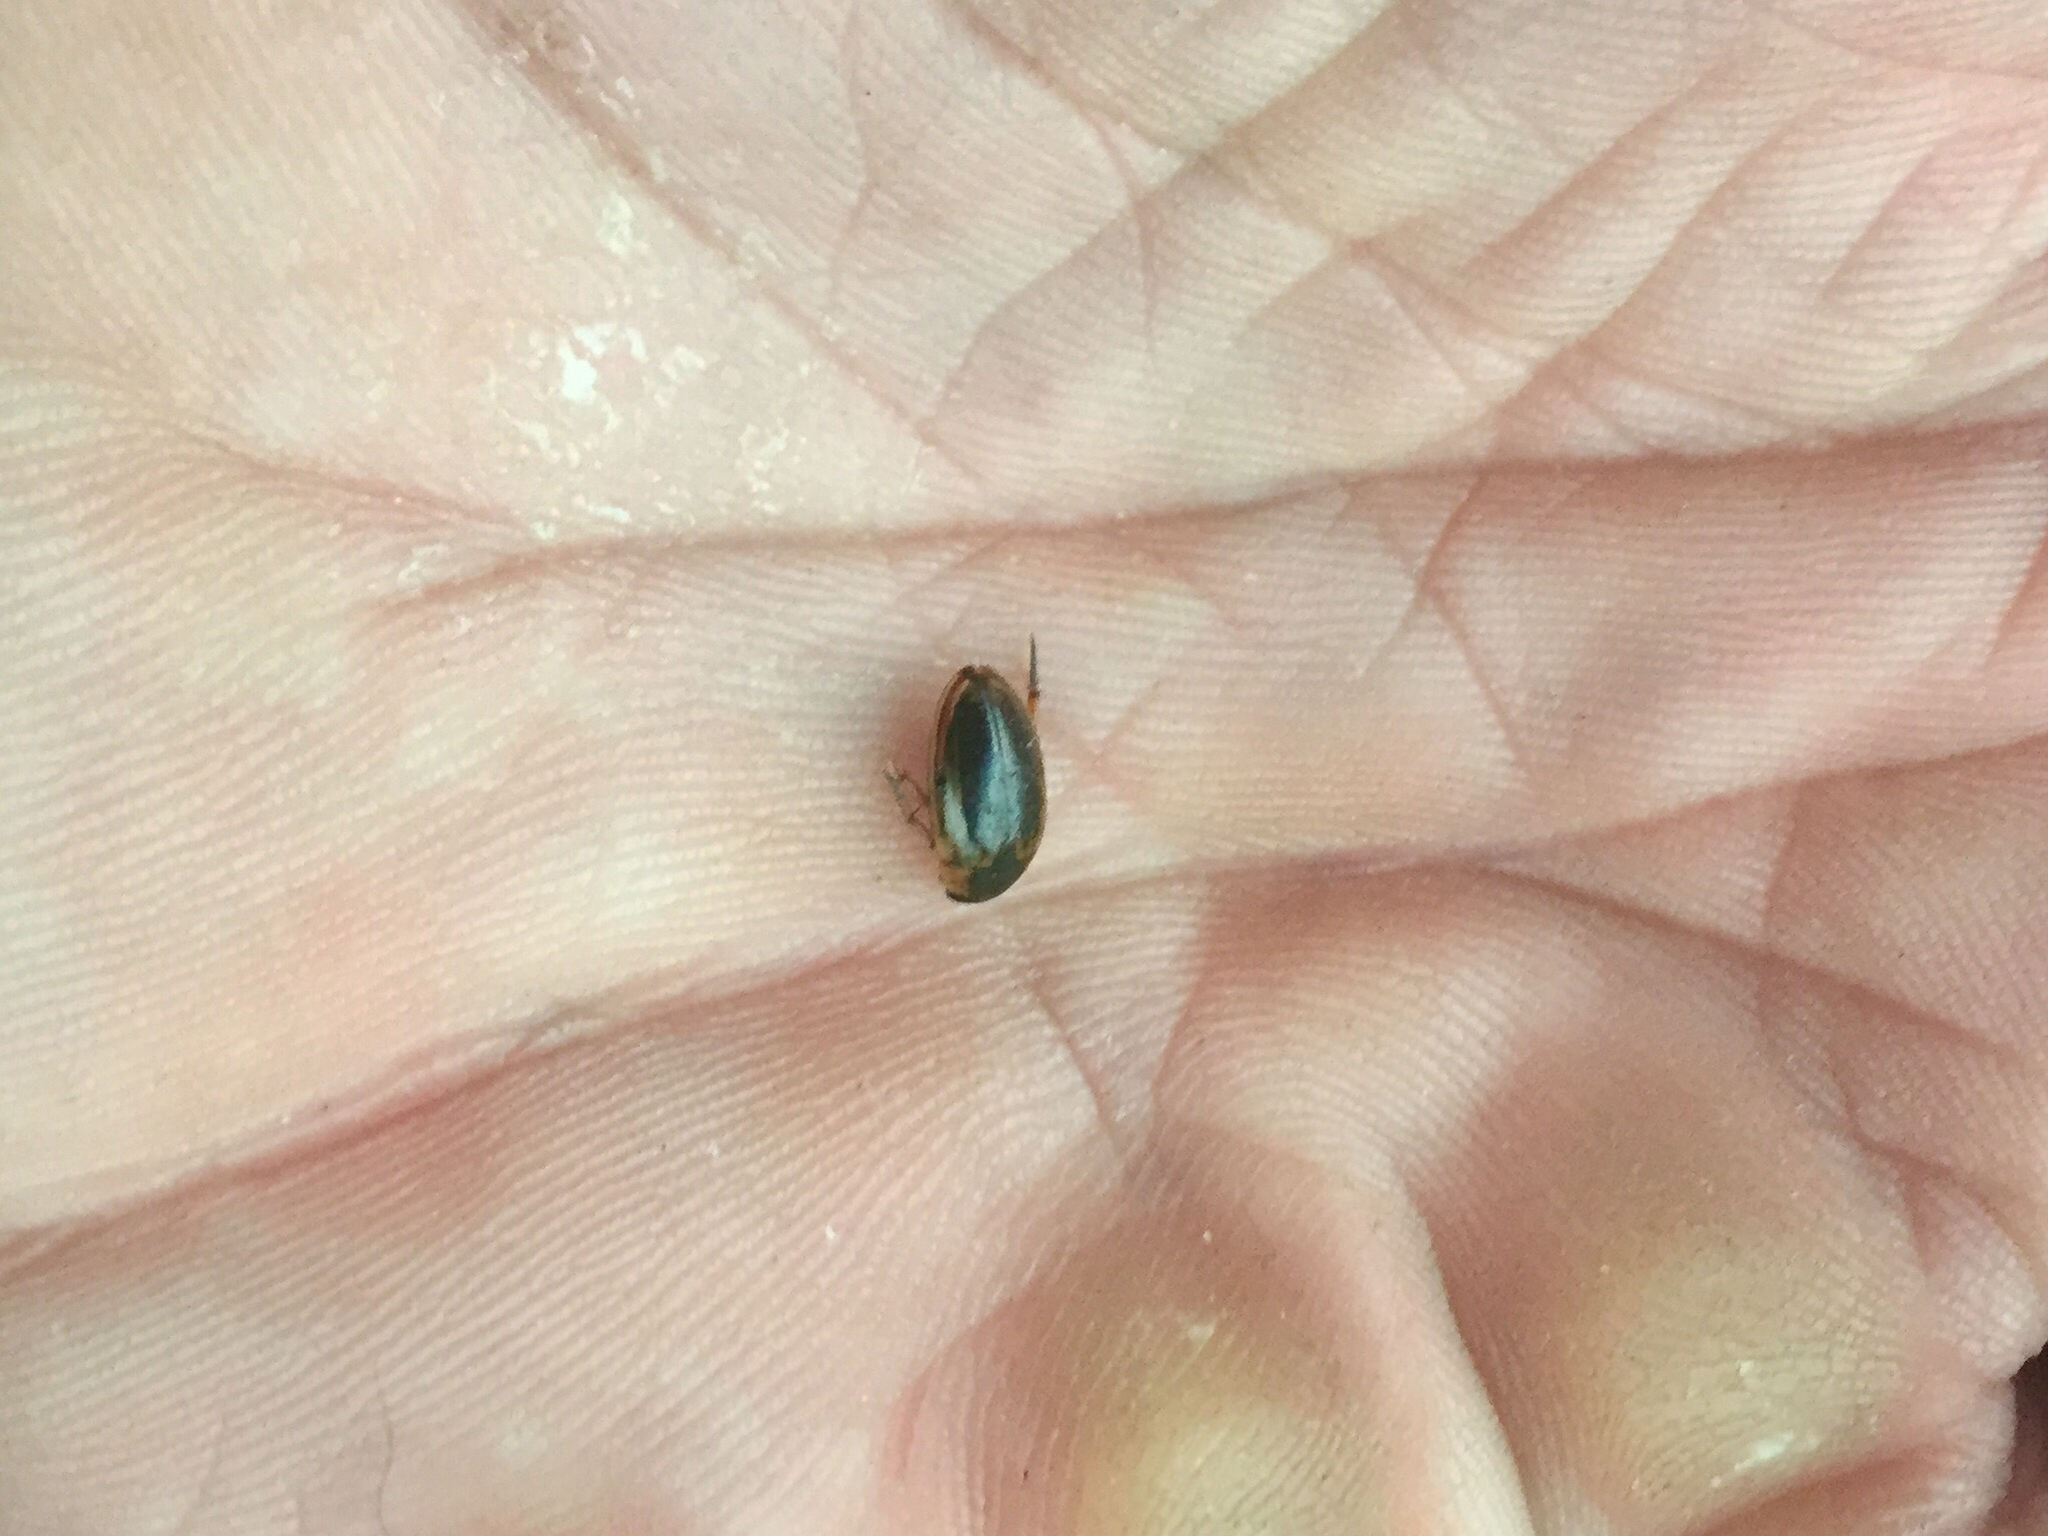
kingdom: Animalia
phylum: Arthropoda
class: Insecta
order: Coleoptera
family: Hydrophilidae
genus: Tropisternus
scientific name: Tropisternus lateralis
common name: Lateral-banded water scavenger beetle
